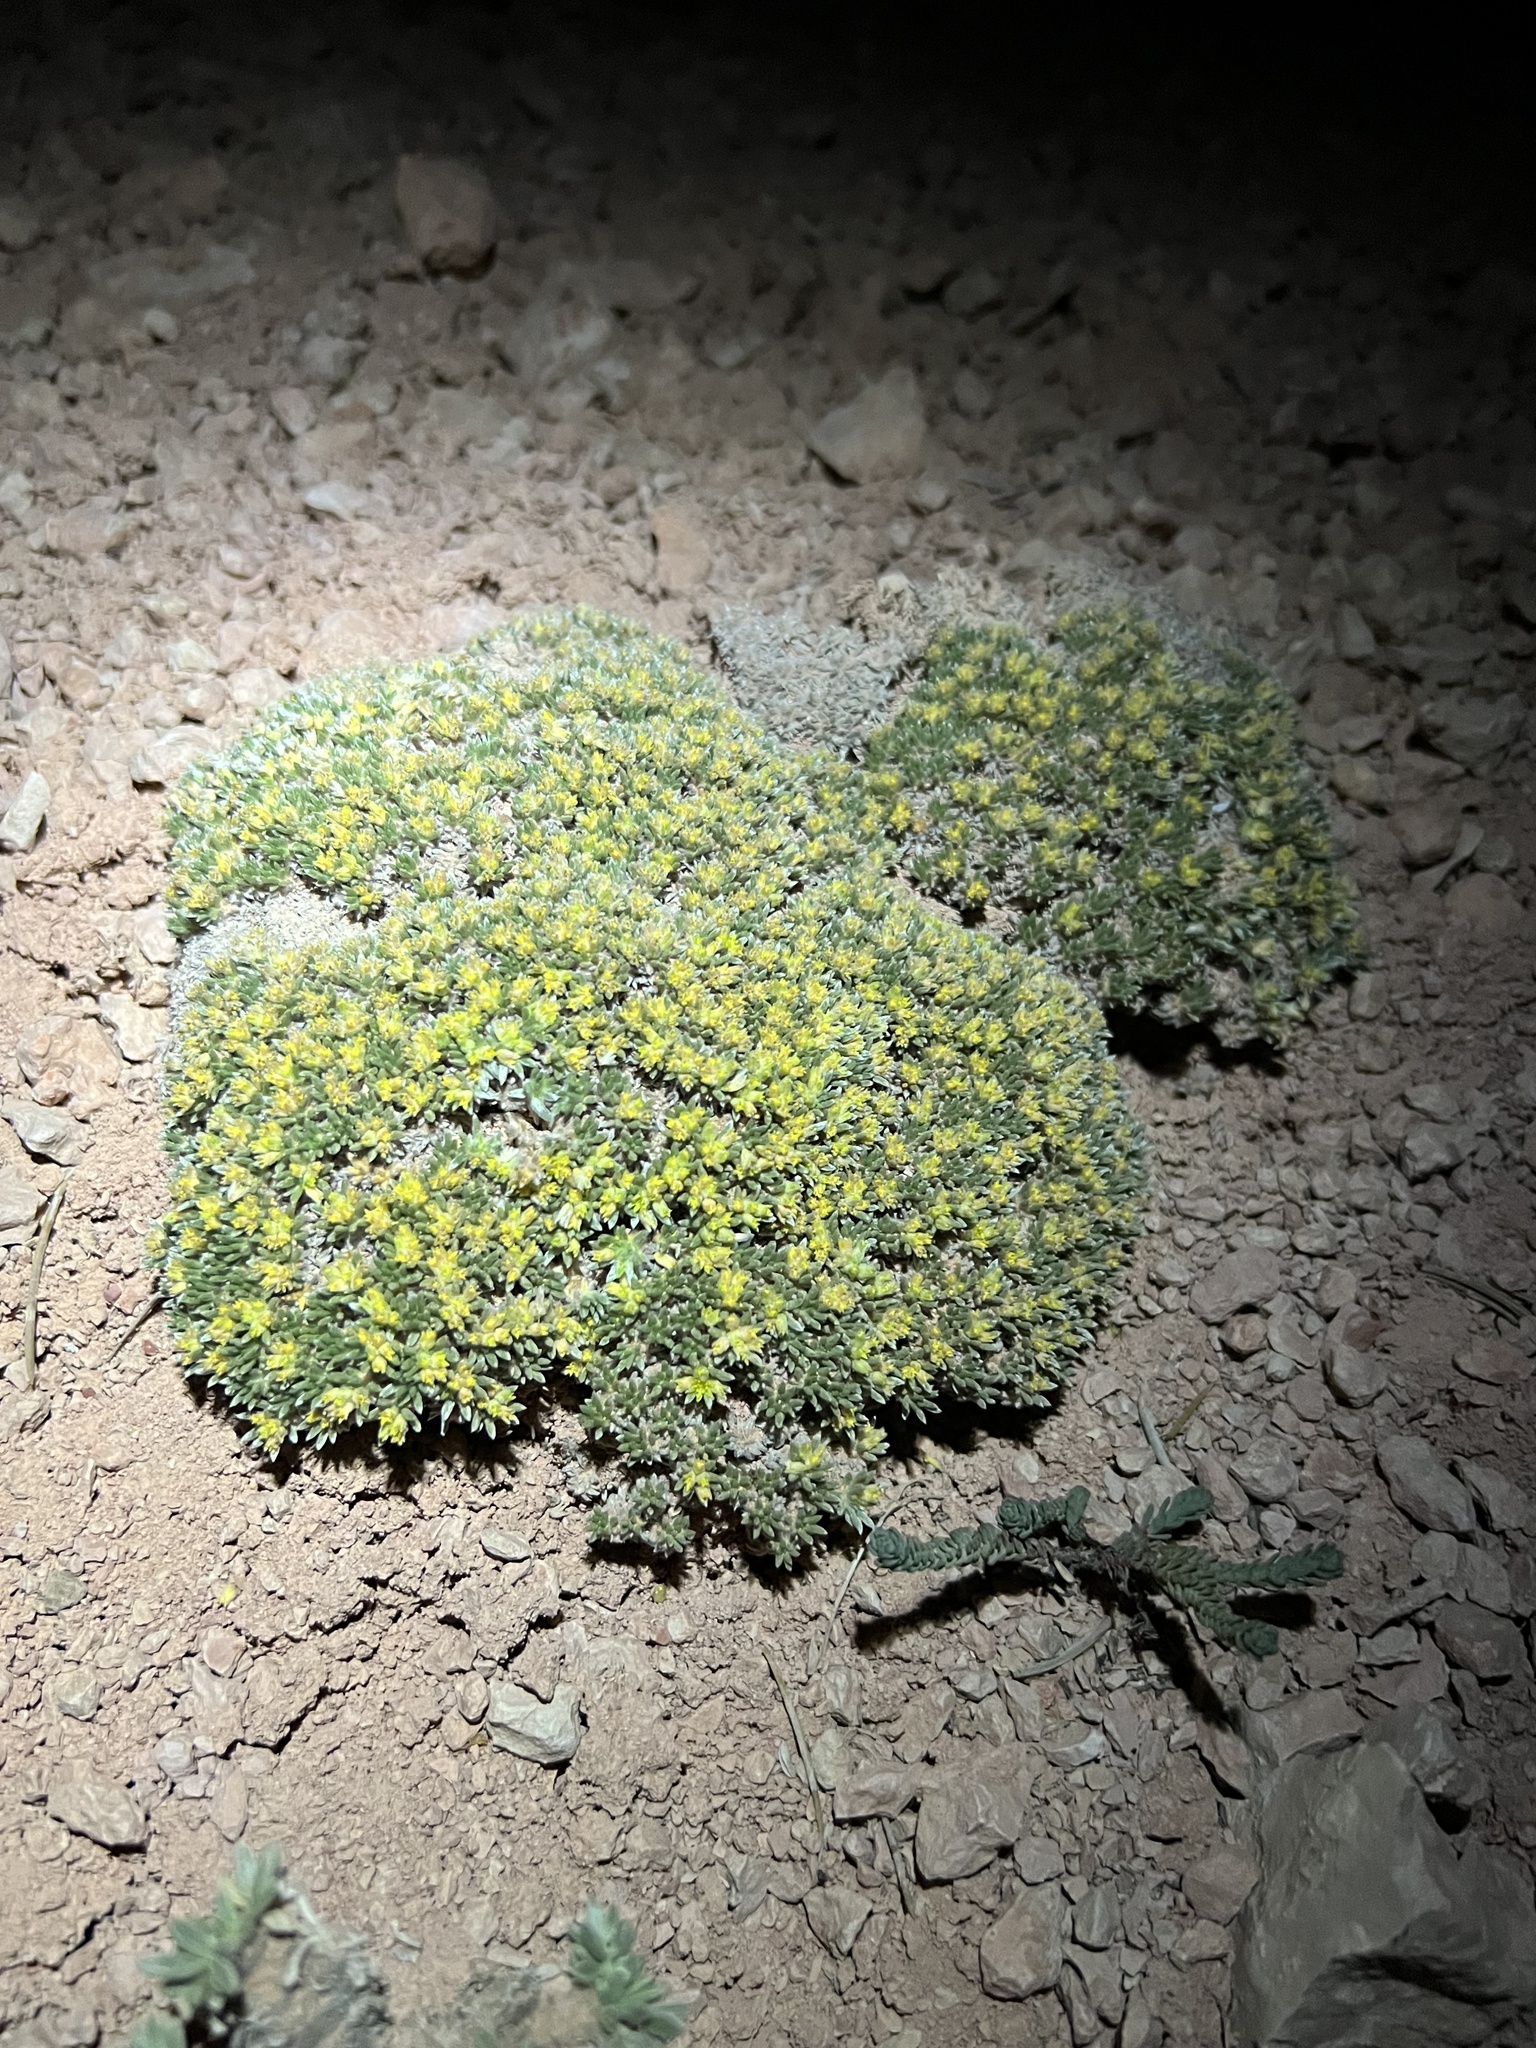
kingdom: Plantae
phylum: Tracheophyta
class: Magnoliopsida
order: Caryophyllales
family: Polygonaceae
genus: Eriogonum
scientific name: Eriogonum aretioides
